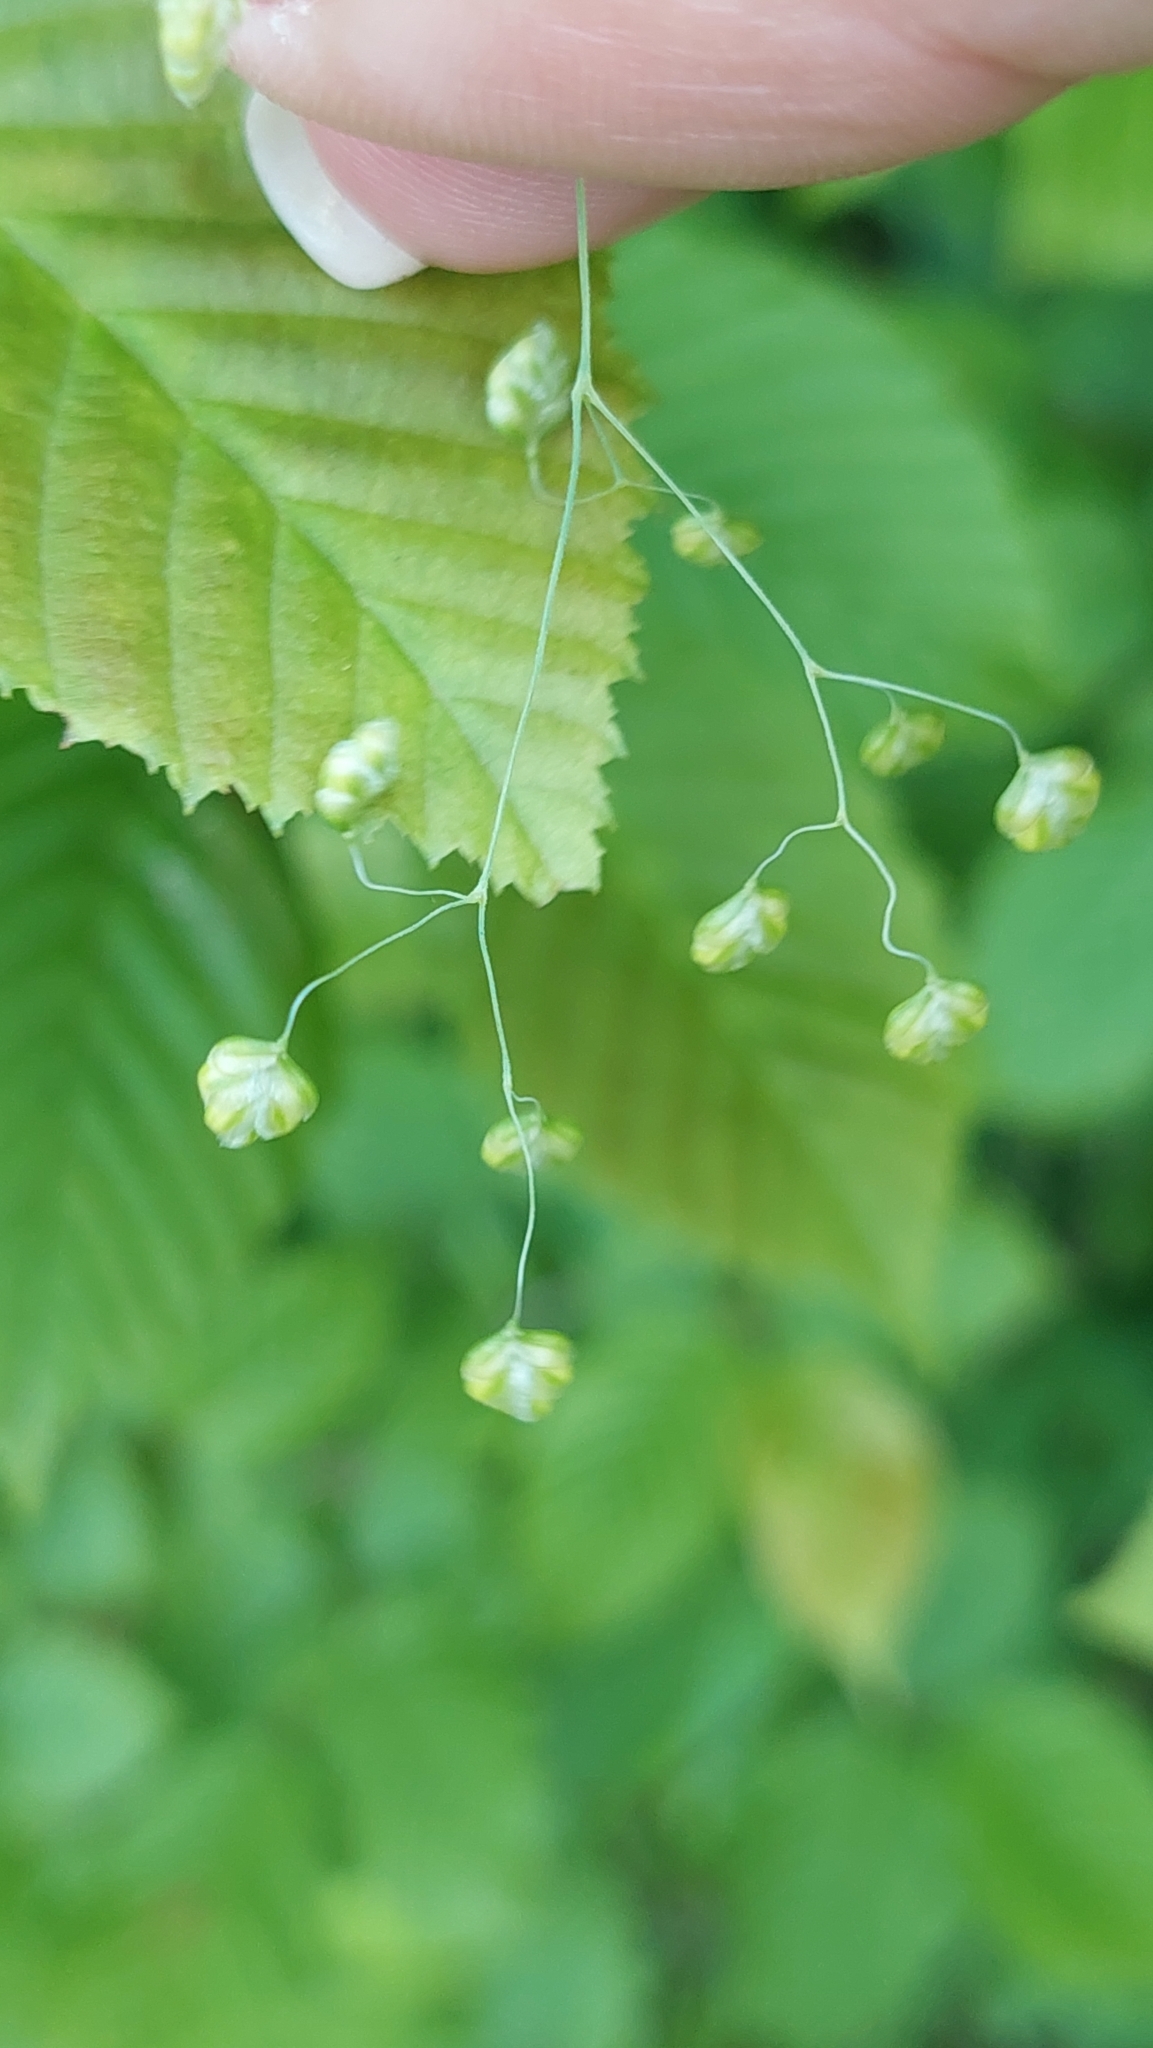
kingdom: Plantae
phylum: Tracheophyta
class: Liliopsida
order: Poales
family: Poaceae
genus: Briza
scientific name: Briza media
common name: Quaking grass
